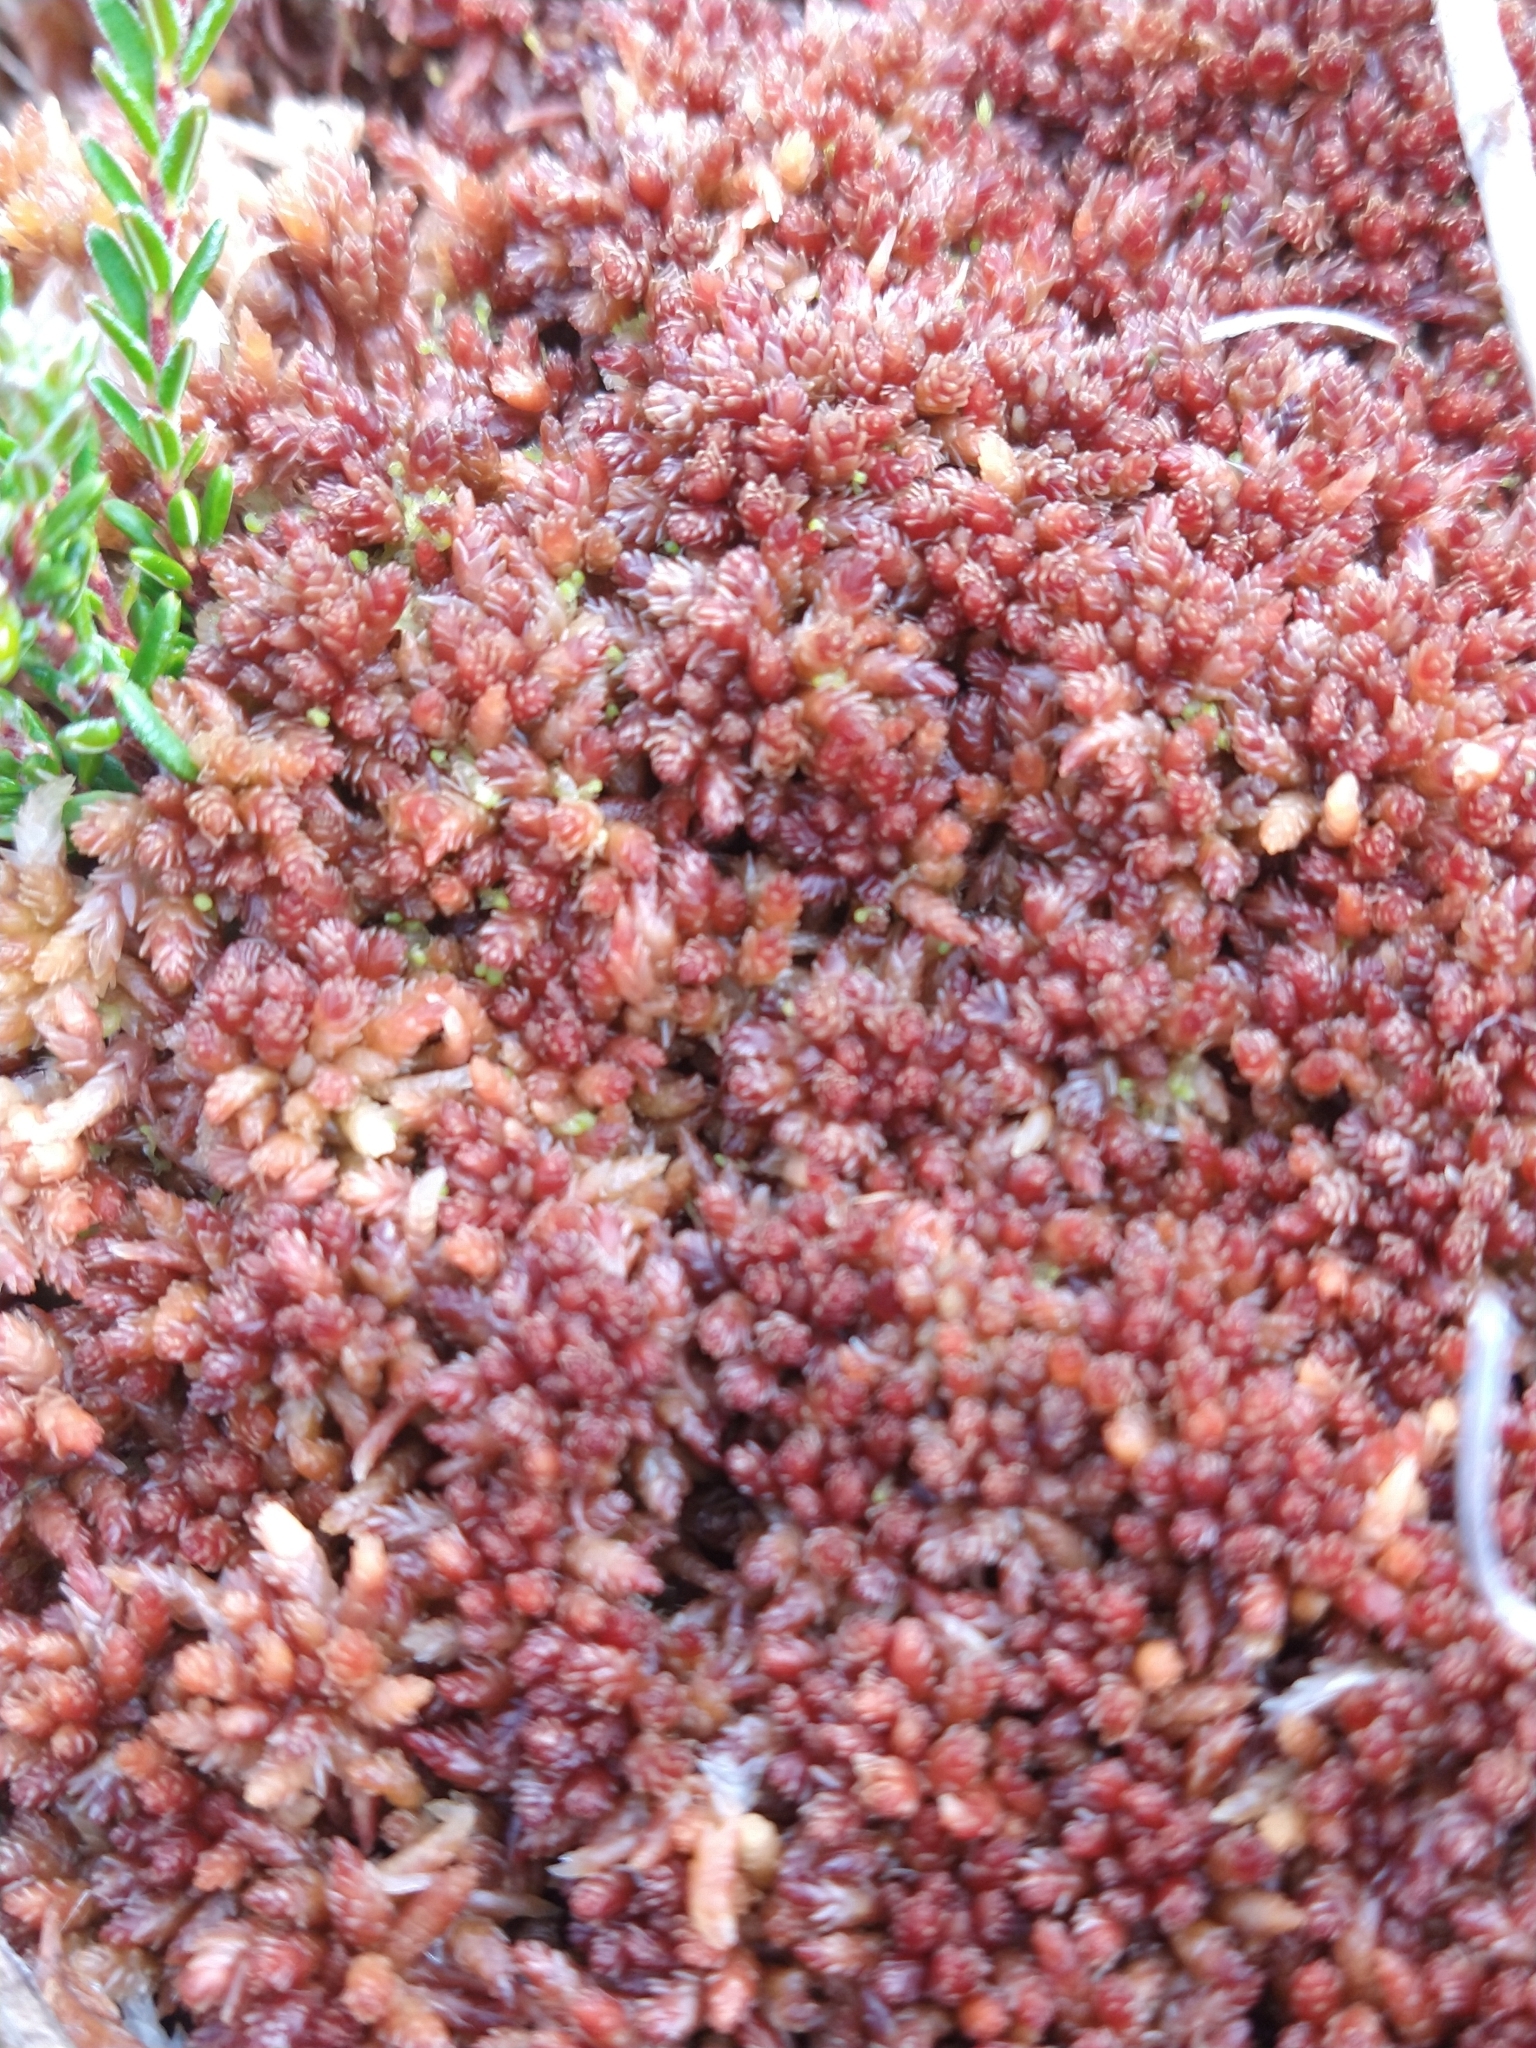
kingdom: Plantae
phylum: Bryophyta
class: Sphagnopsida
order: Sphagnales
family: Sphagnaceae
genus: Sphagnum
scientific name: Sphagnum magellanicum
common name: Magellan's peat moss
